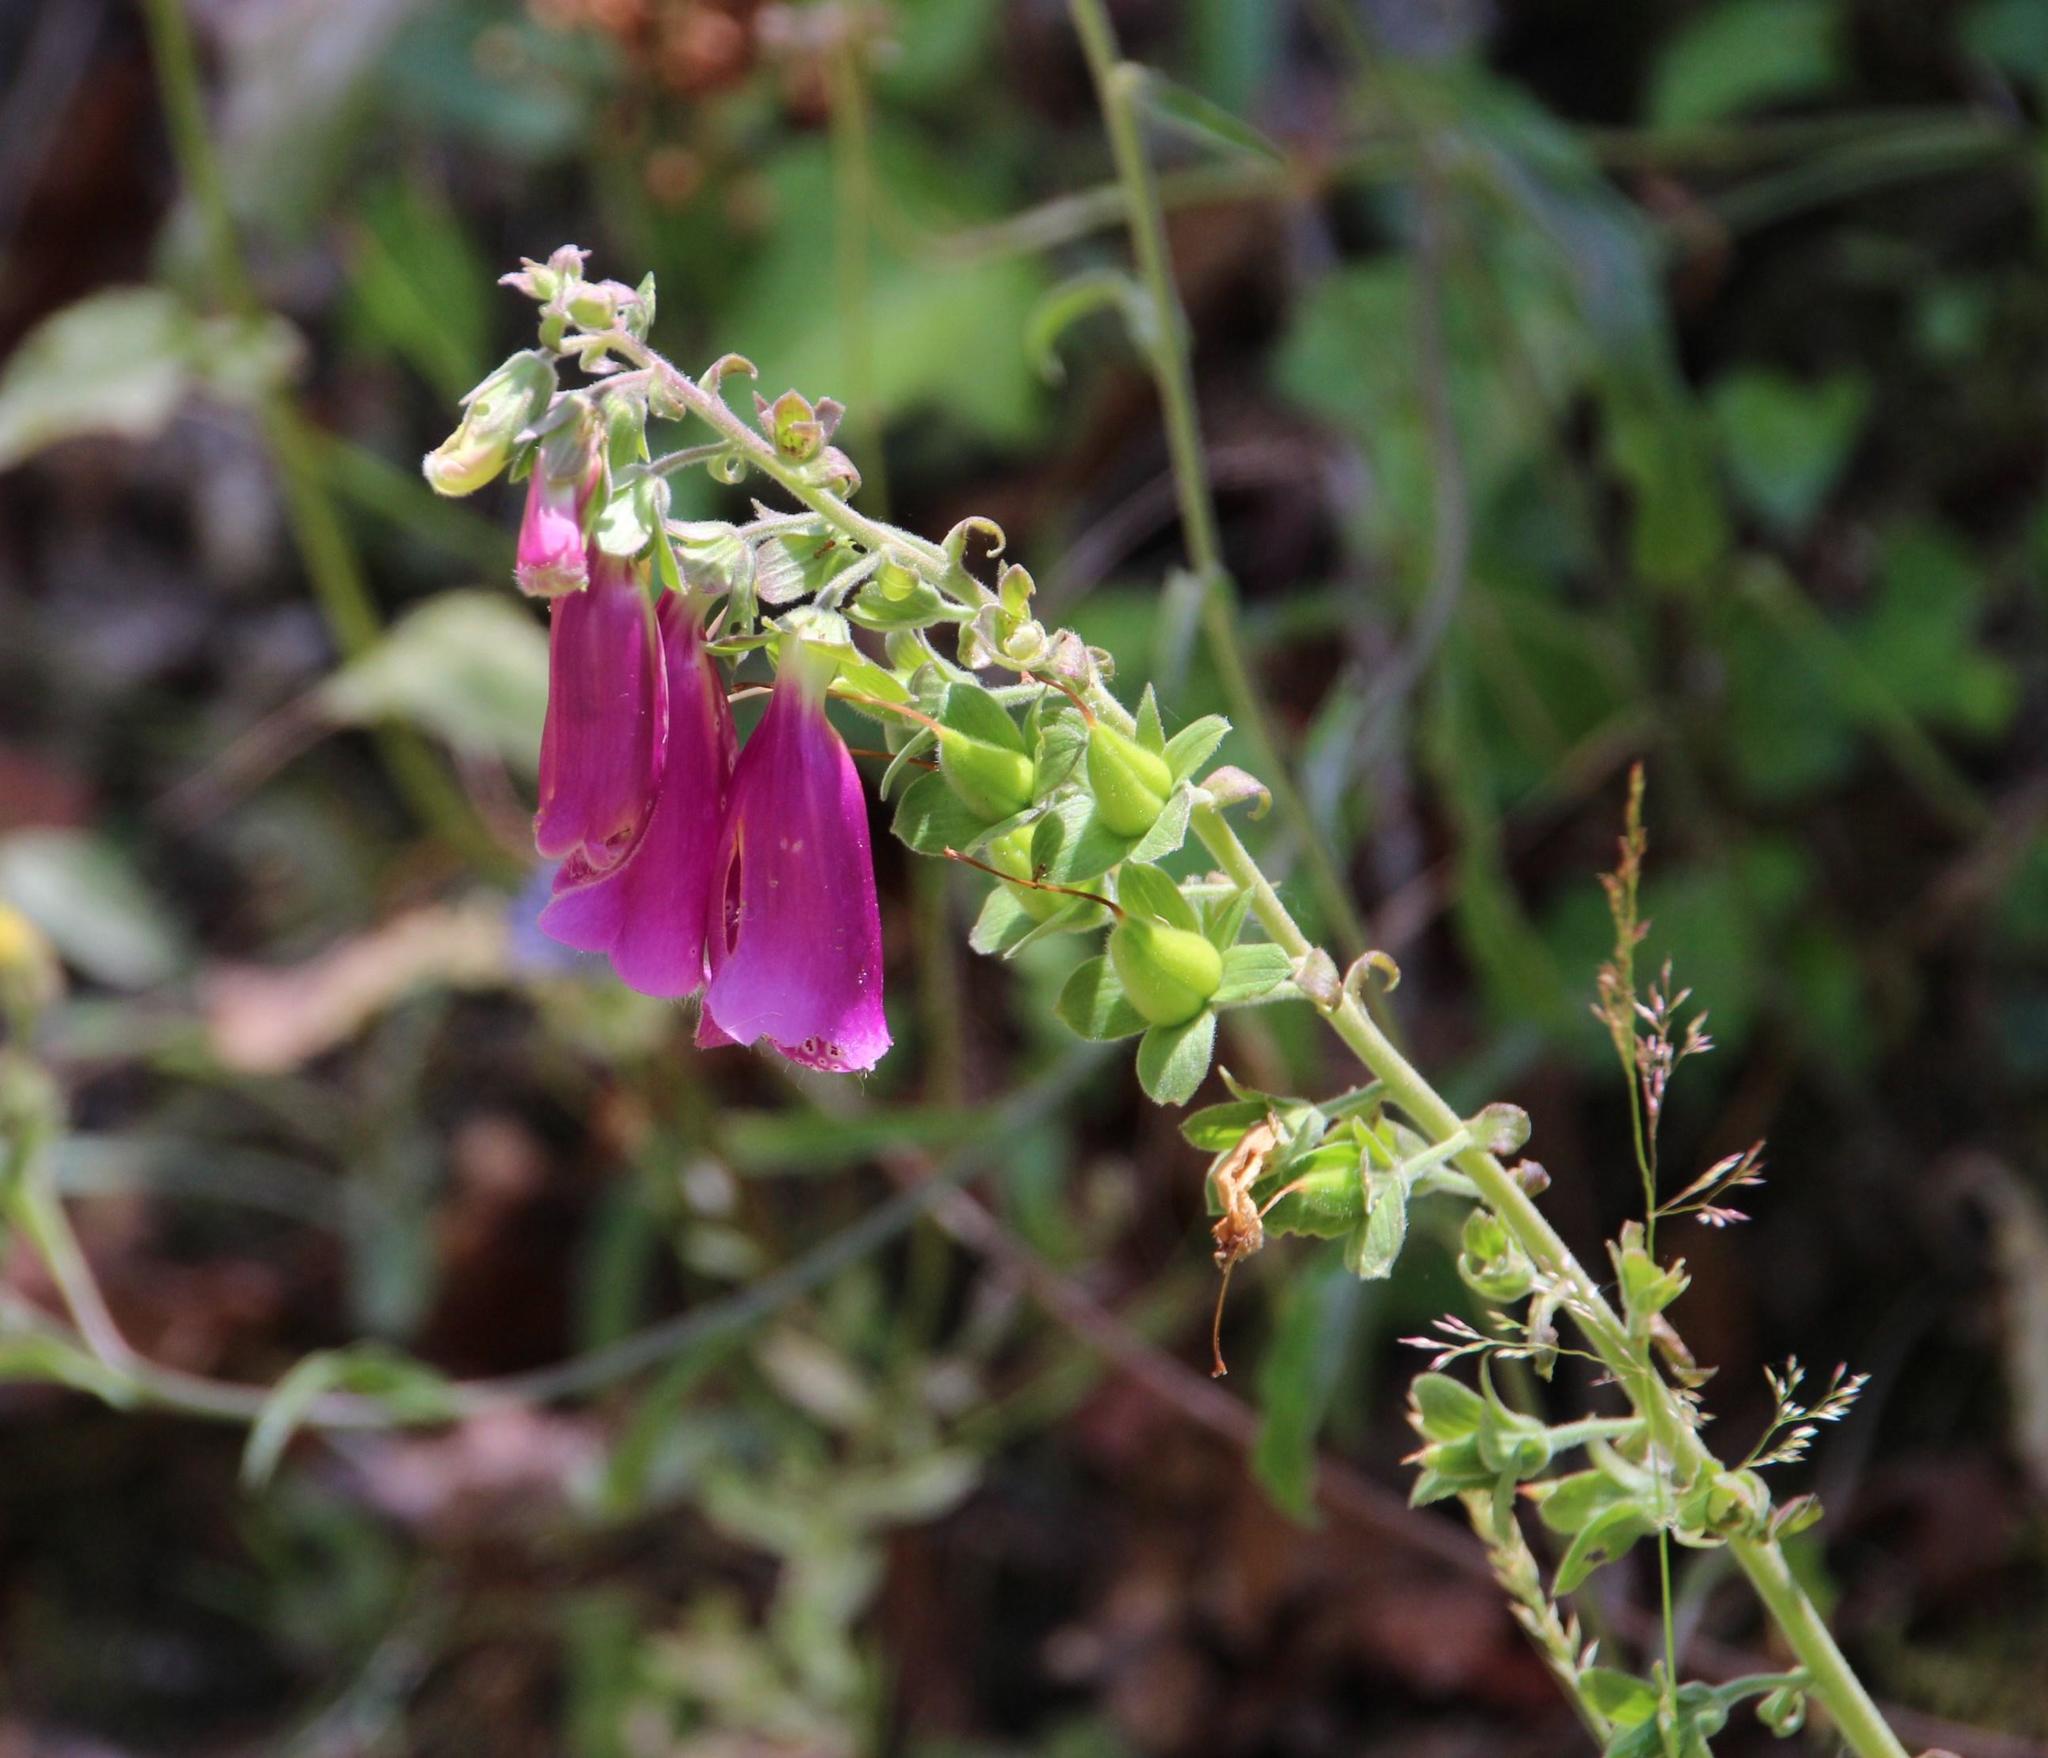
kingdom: Plantae
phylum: Tracheophyta
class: Magnoliopsida
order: Lamiales
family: Plantaginaceae
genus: Digitalis
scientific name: Digitalis purpurea
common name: Foxglove
